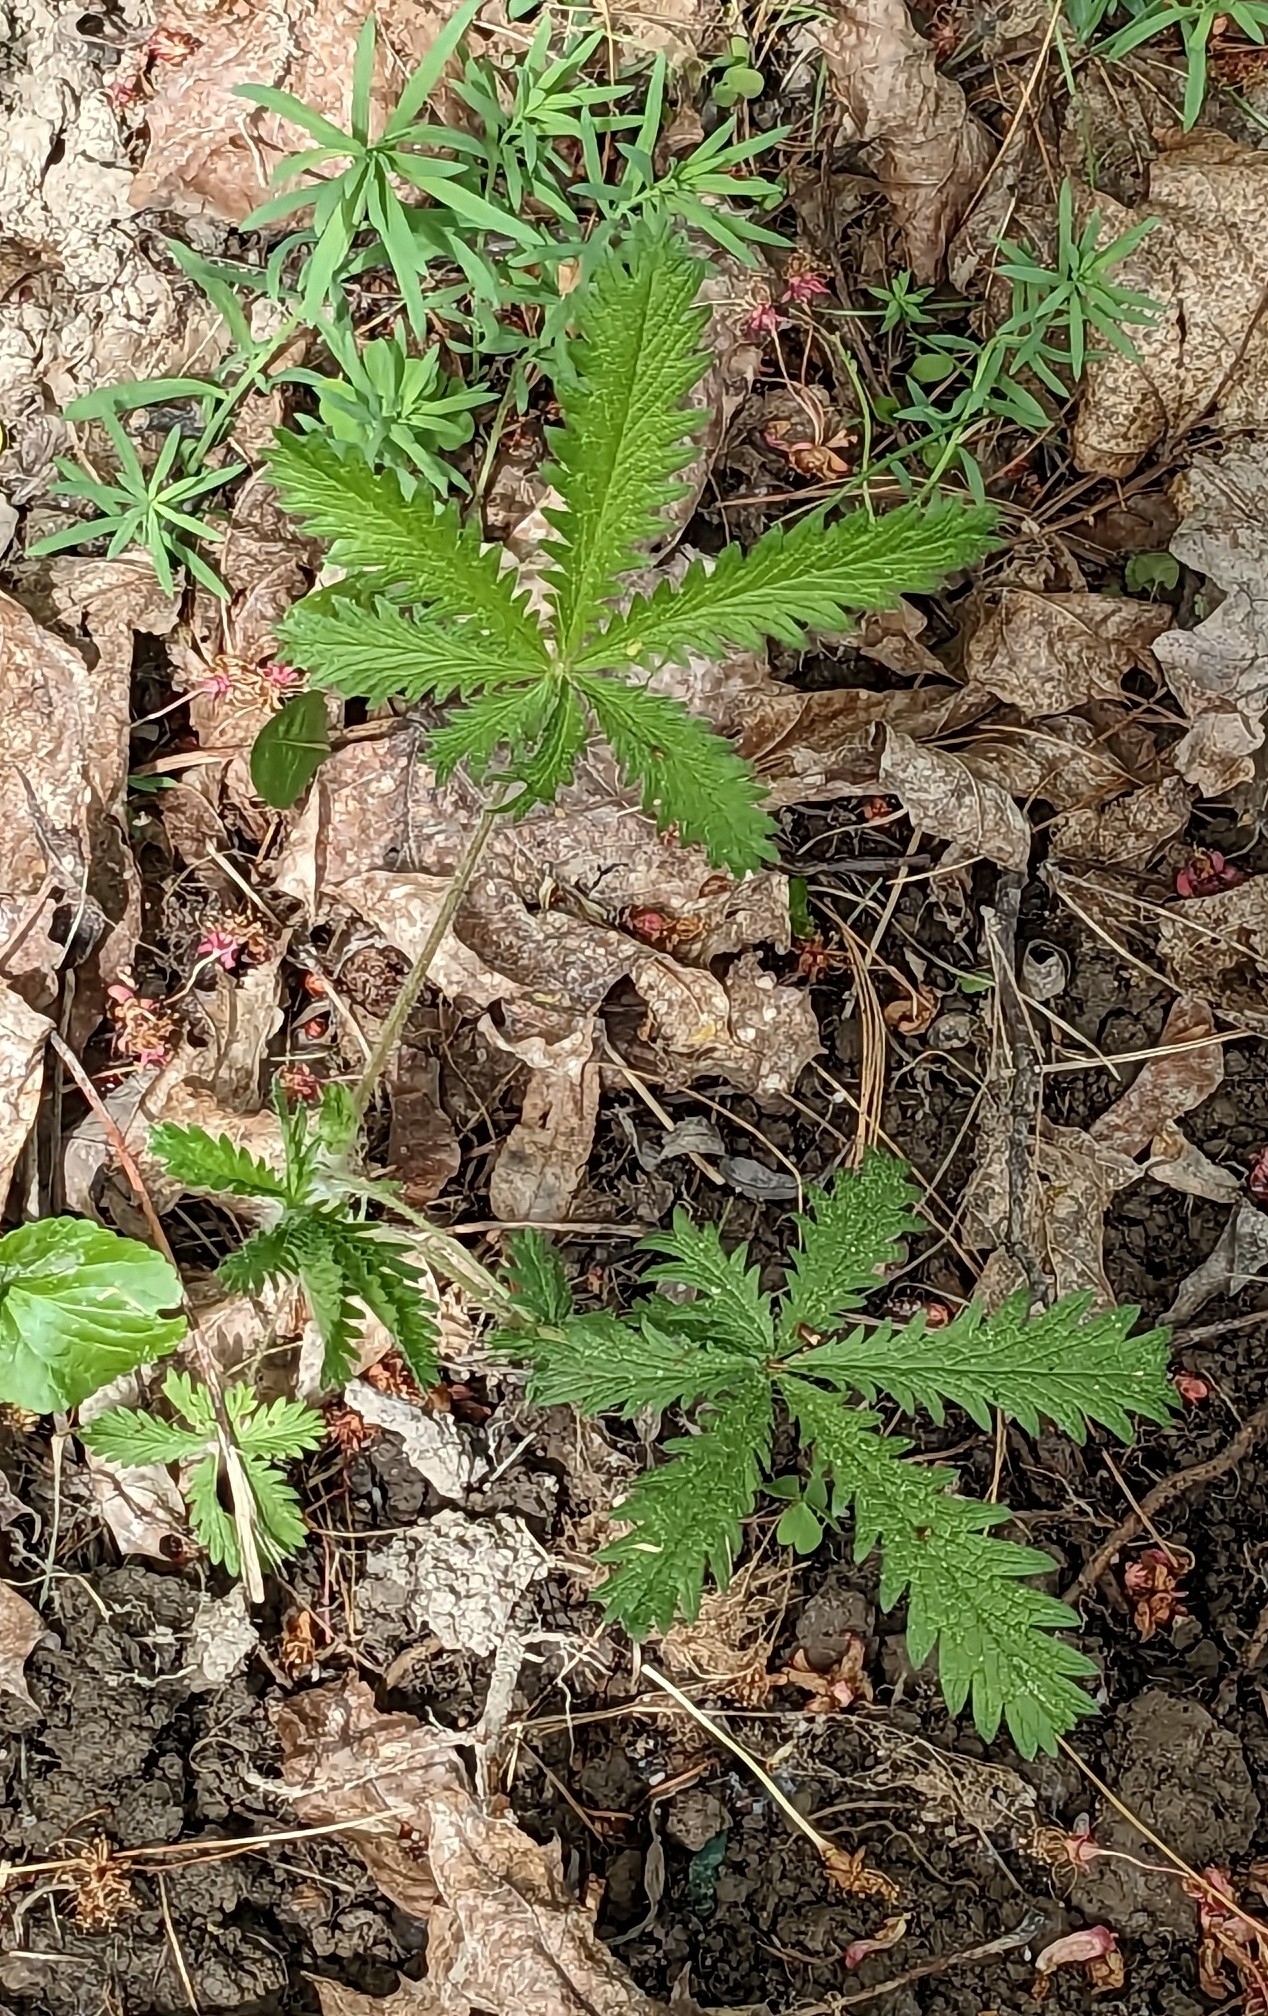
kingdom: Plantae
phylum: Tracheophyta
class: Magnoliopsida
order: Rosales
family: Rosaceae
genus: Potentilla
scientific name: Potentilla recta
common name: Sulphur cinquefoil
